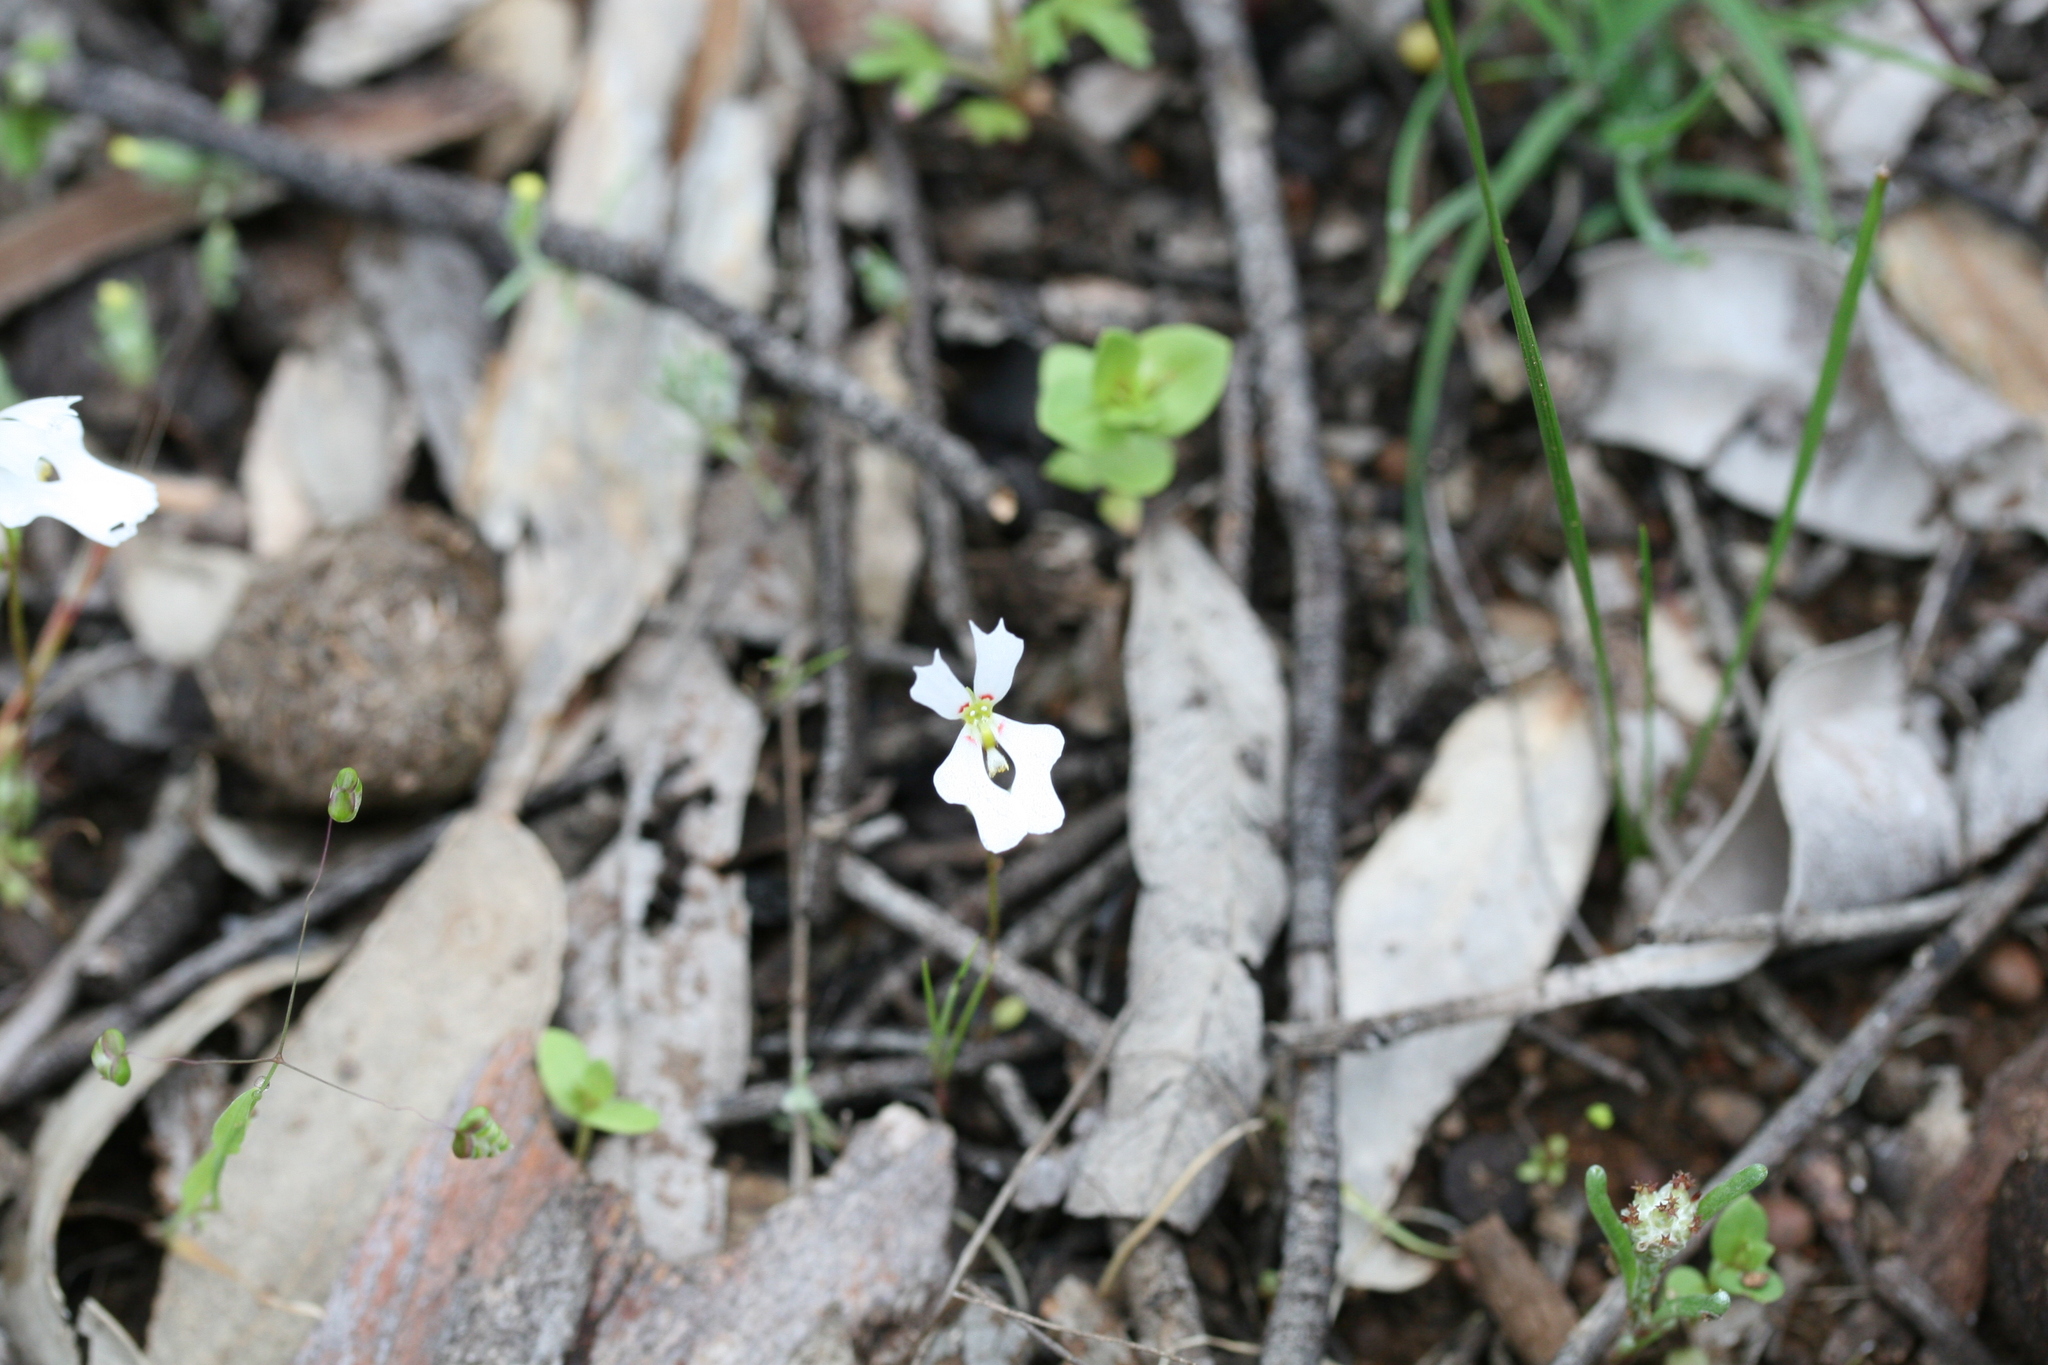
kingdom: Plantae
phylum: Tracheophyta
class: Magnoliopsida
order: Asterales
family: Stylidiaceae
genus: Stylidium
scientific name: Stylidium androsaceum
